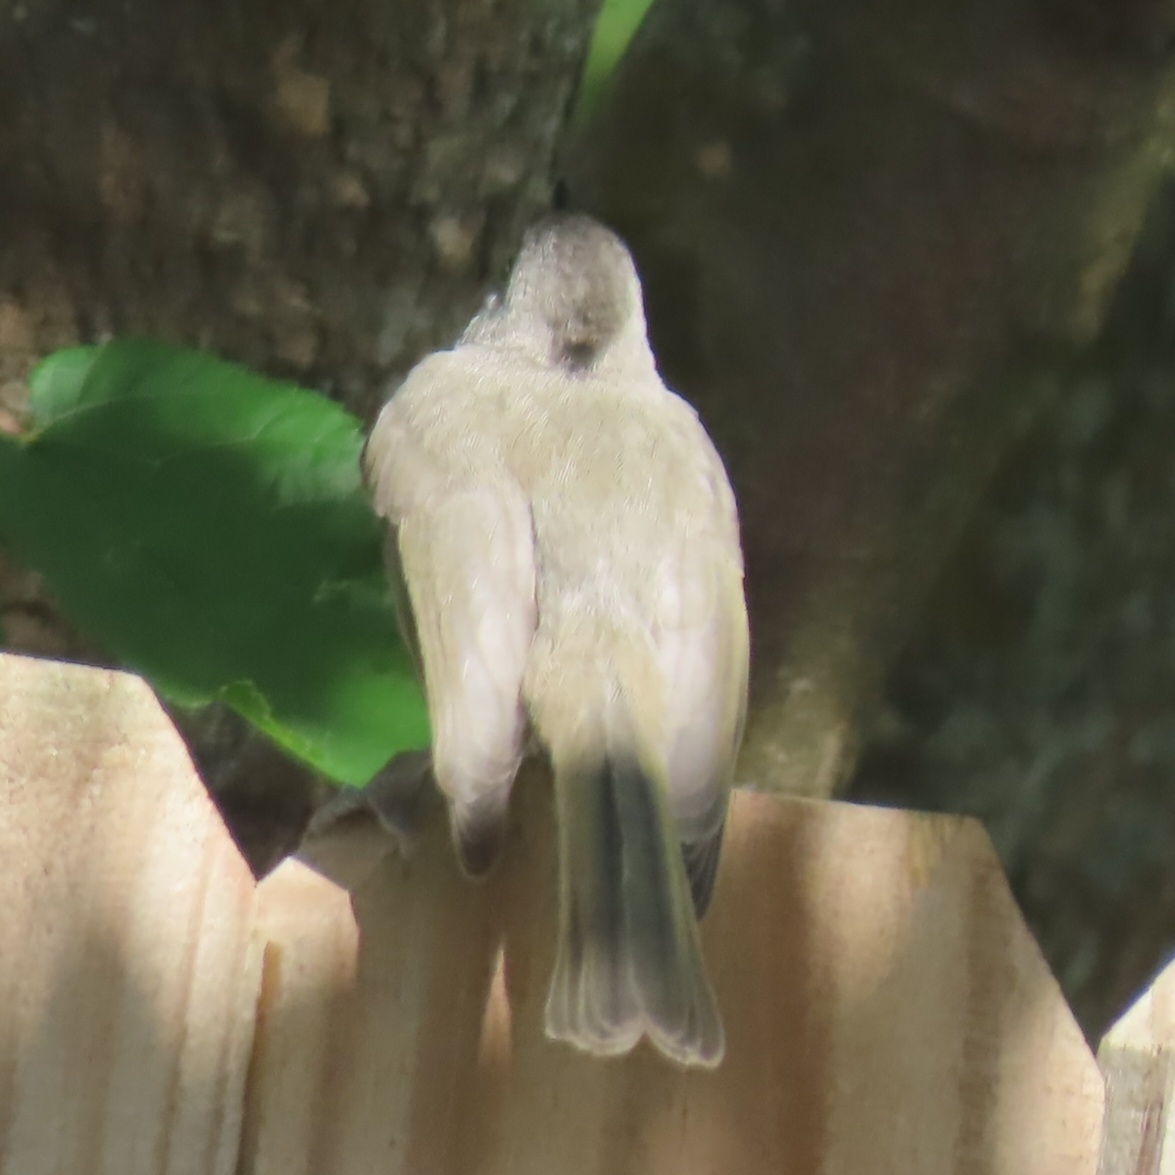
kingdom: Animalia
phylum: Chordata
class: Aves
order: Passeriformes
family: Paridae
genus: Baeolophus
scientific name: Baeolophus bicolor
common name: Tufted titmouse
